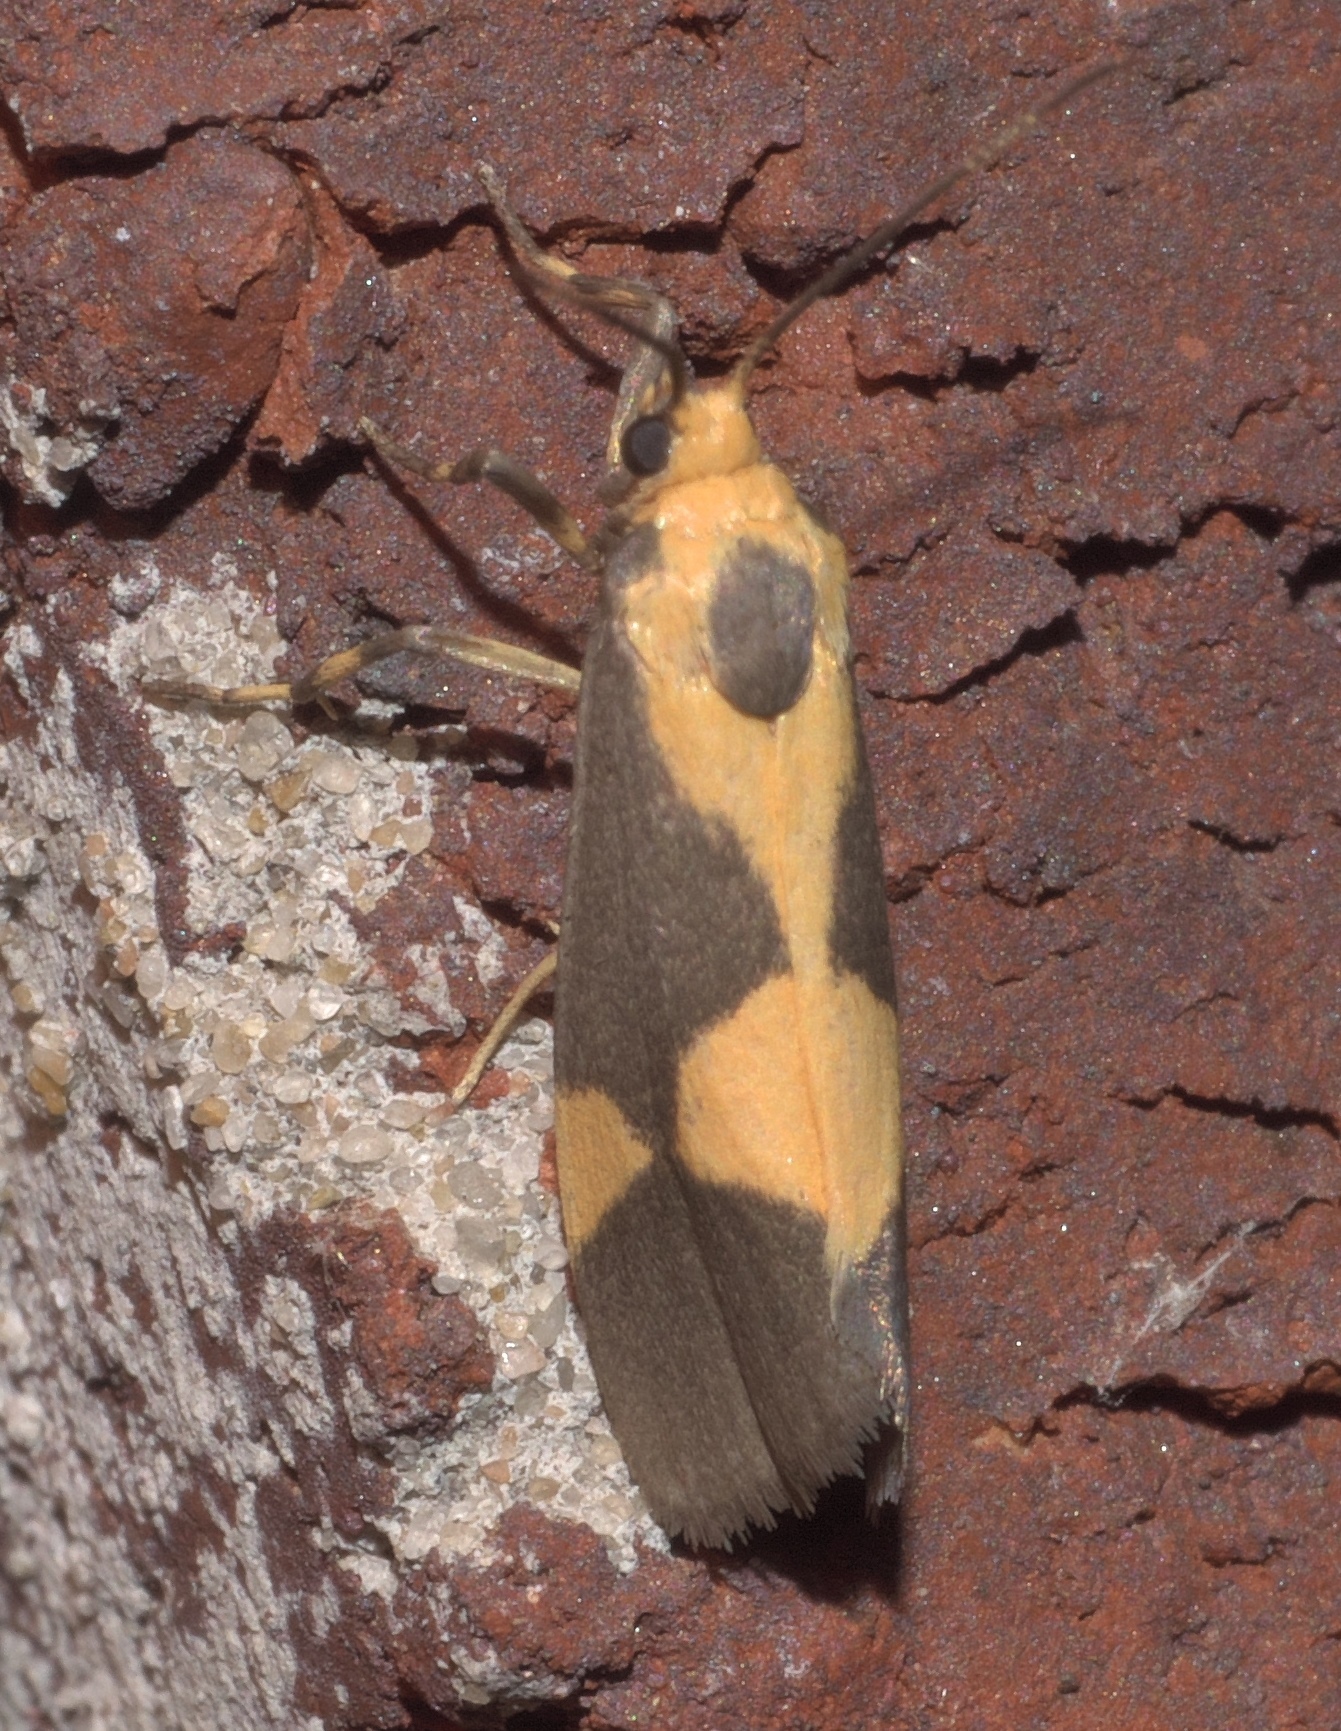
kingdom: Animalia
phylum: Arthropoda
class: Insecta
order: Lepidoptera
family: Erebidae
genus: Cisthene
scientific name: Cisthene unifascia
